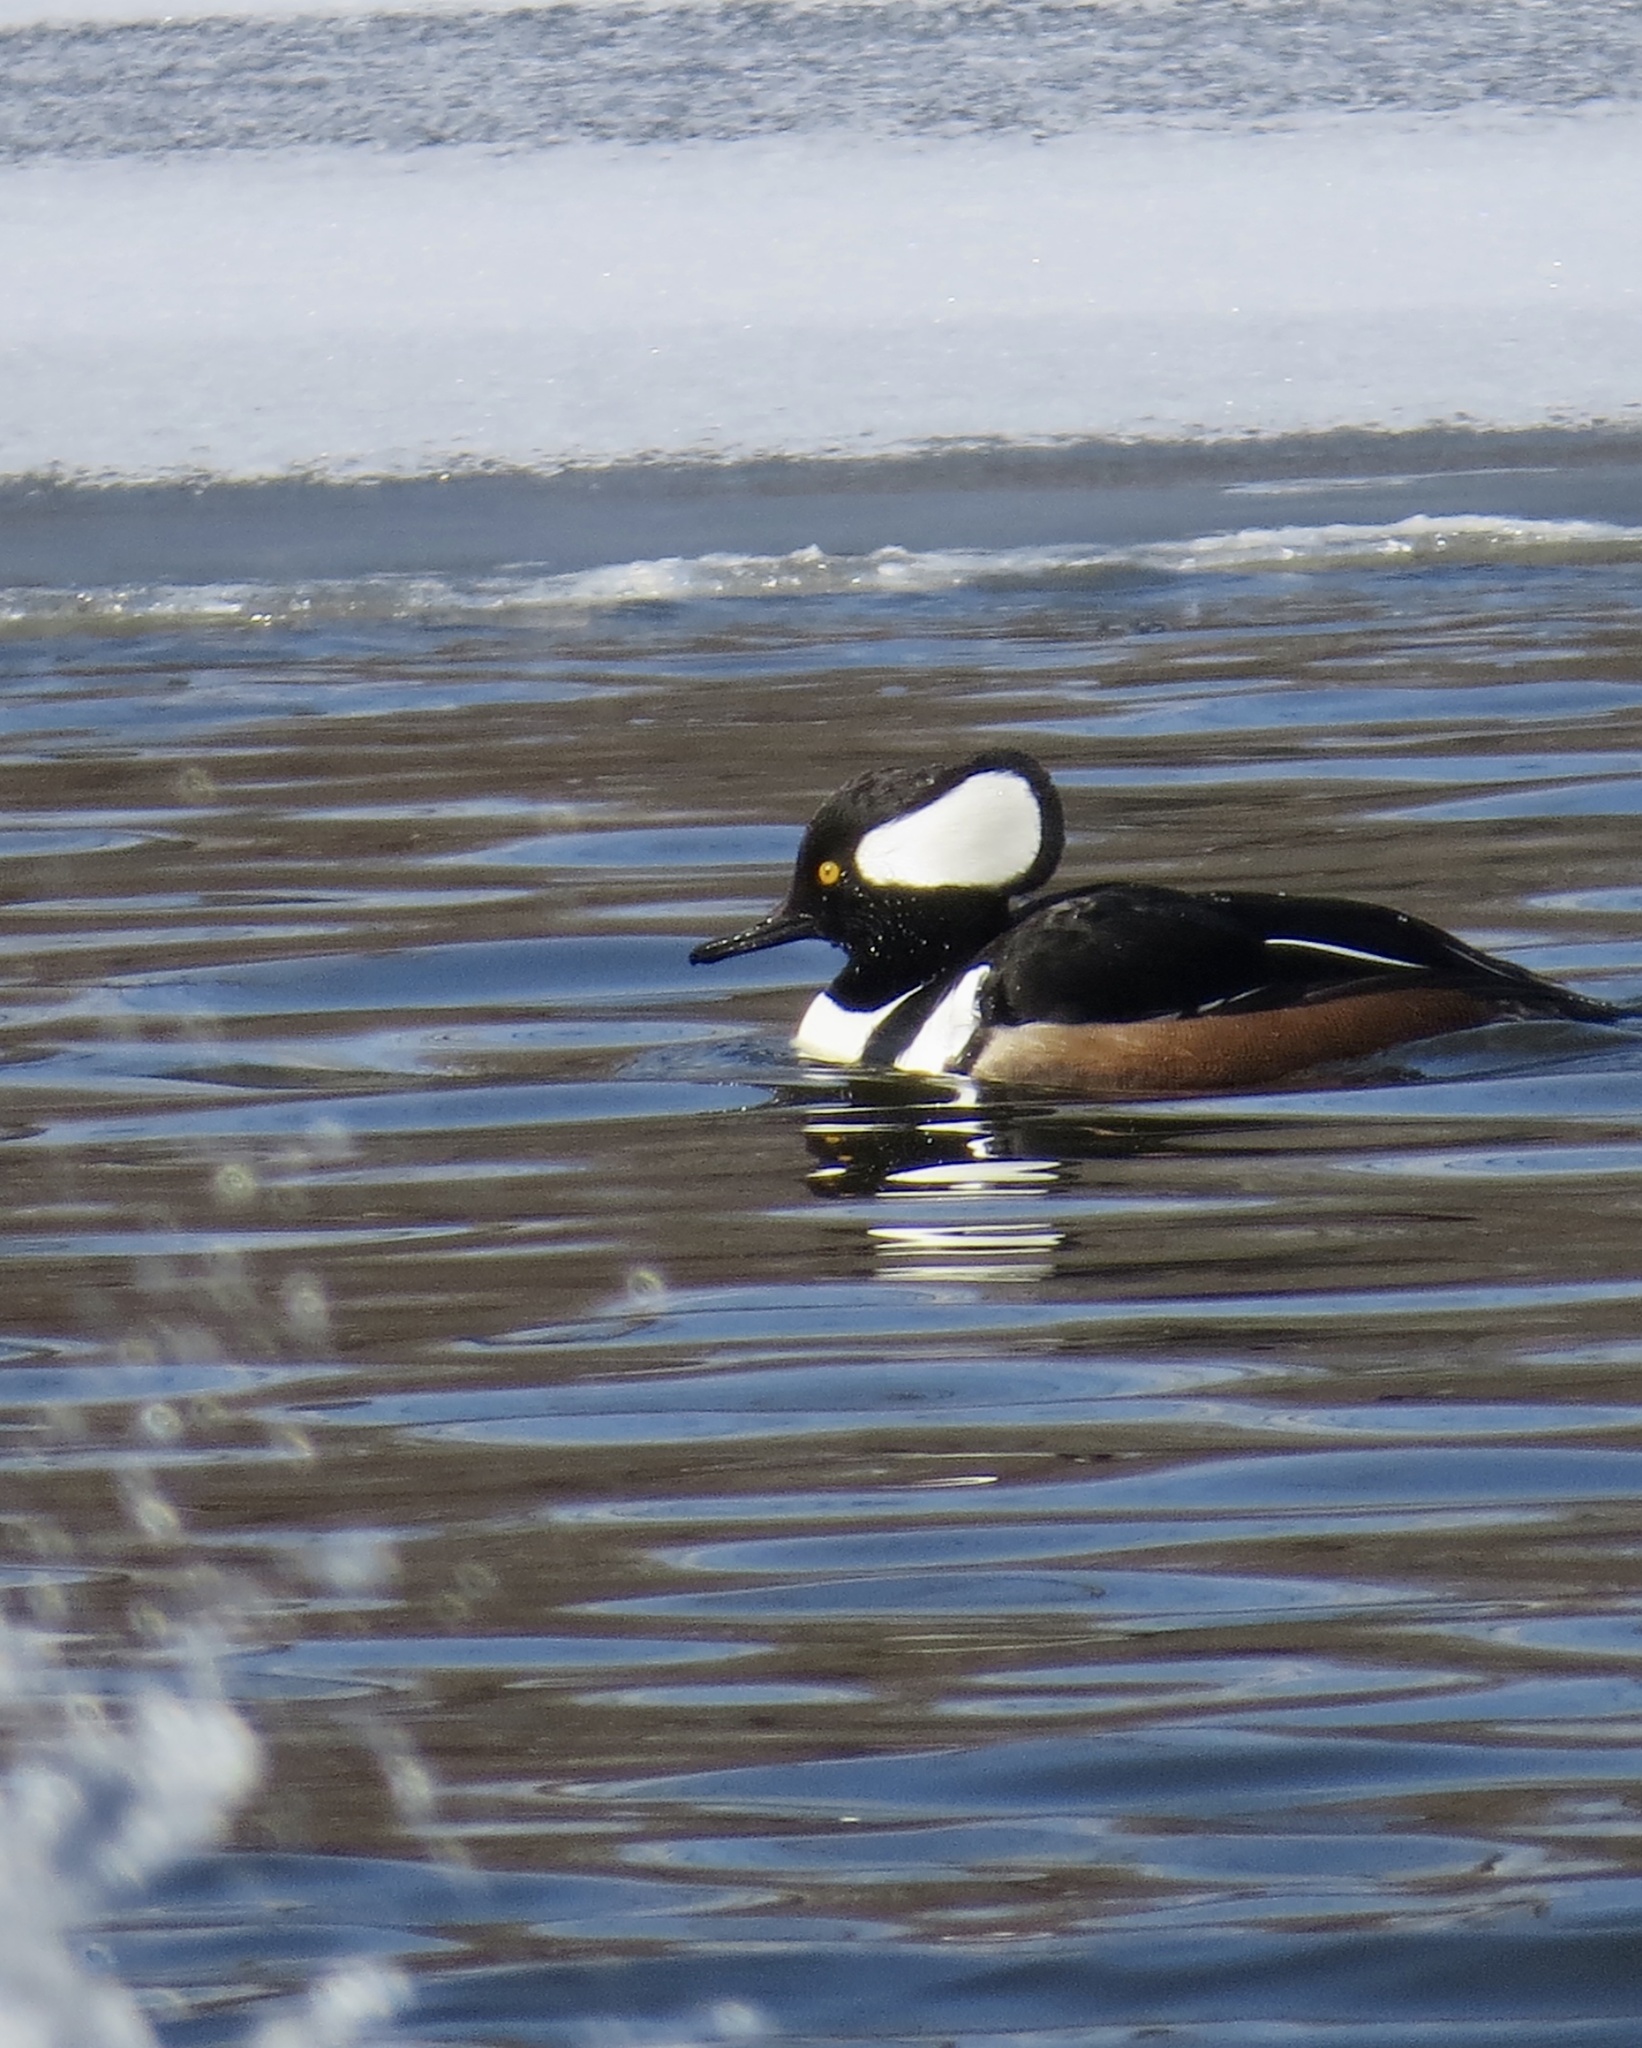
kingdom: Animalia
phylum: Chordata
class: Aves
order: Anseriformes
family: Anatidae
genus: Lophodytes
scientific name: Lophodytes cucullatus
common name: Hooded merganser
